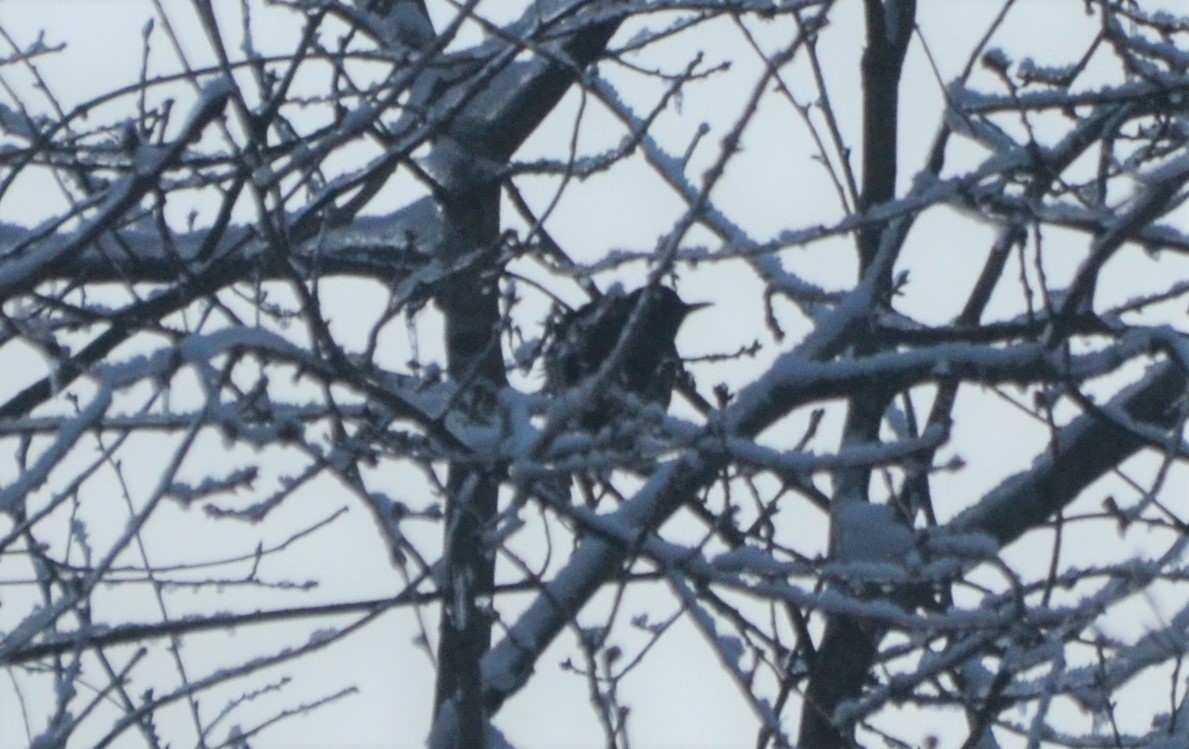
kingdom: Animalia
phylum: Chordata
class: Aves
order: Passeriformes
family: Turdidae
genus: Turdus
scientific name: Turdus merula
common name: Common blackbird
